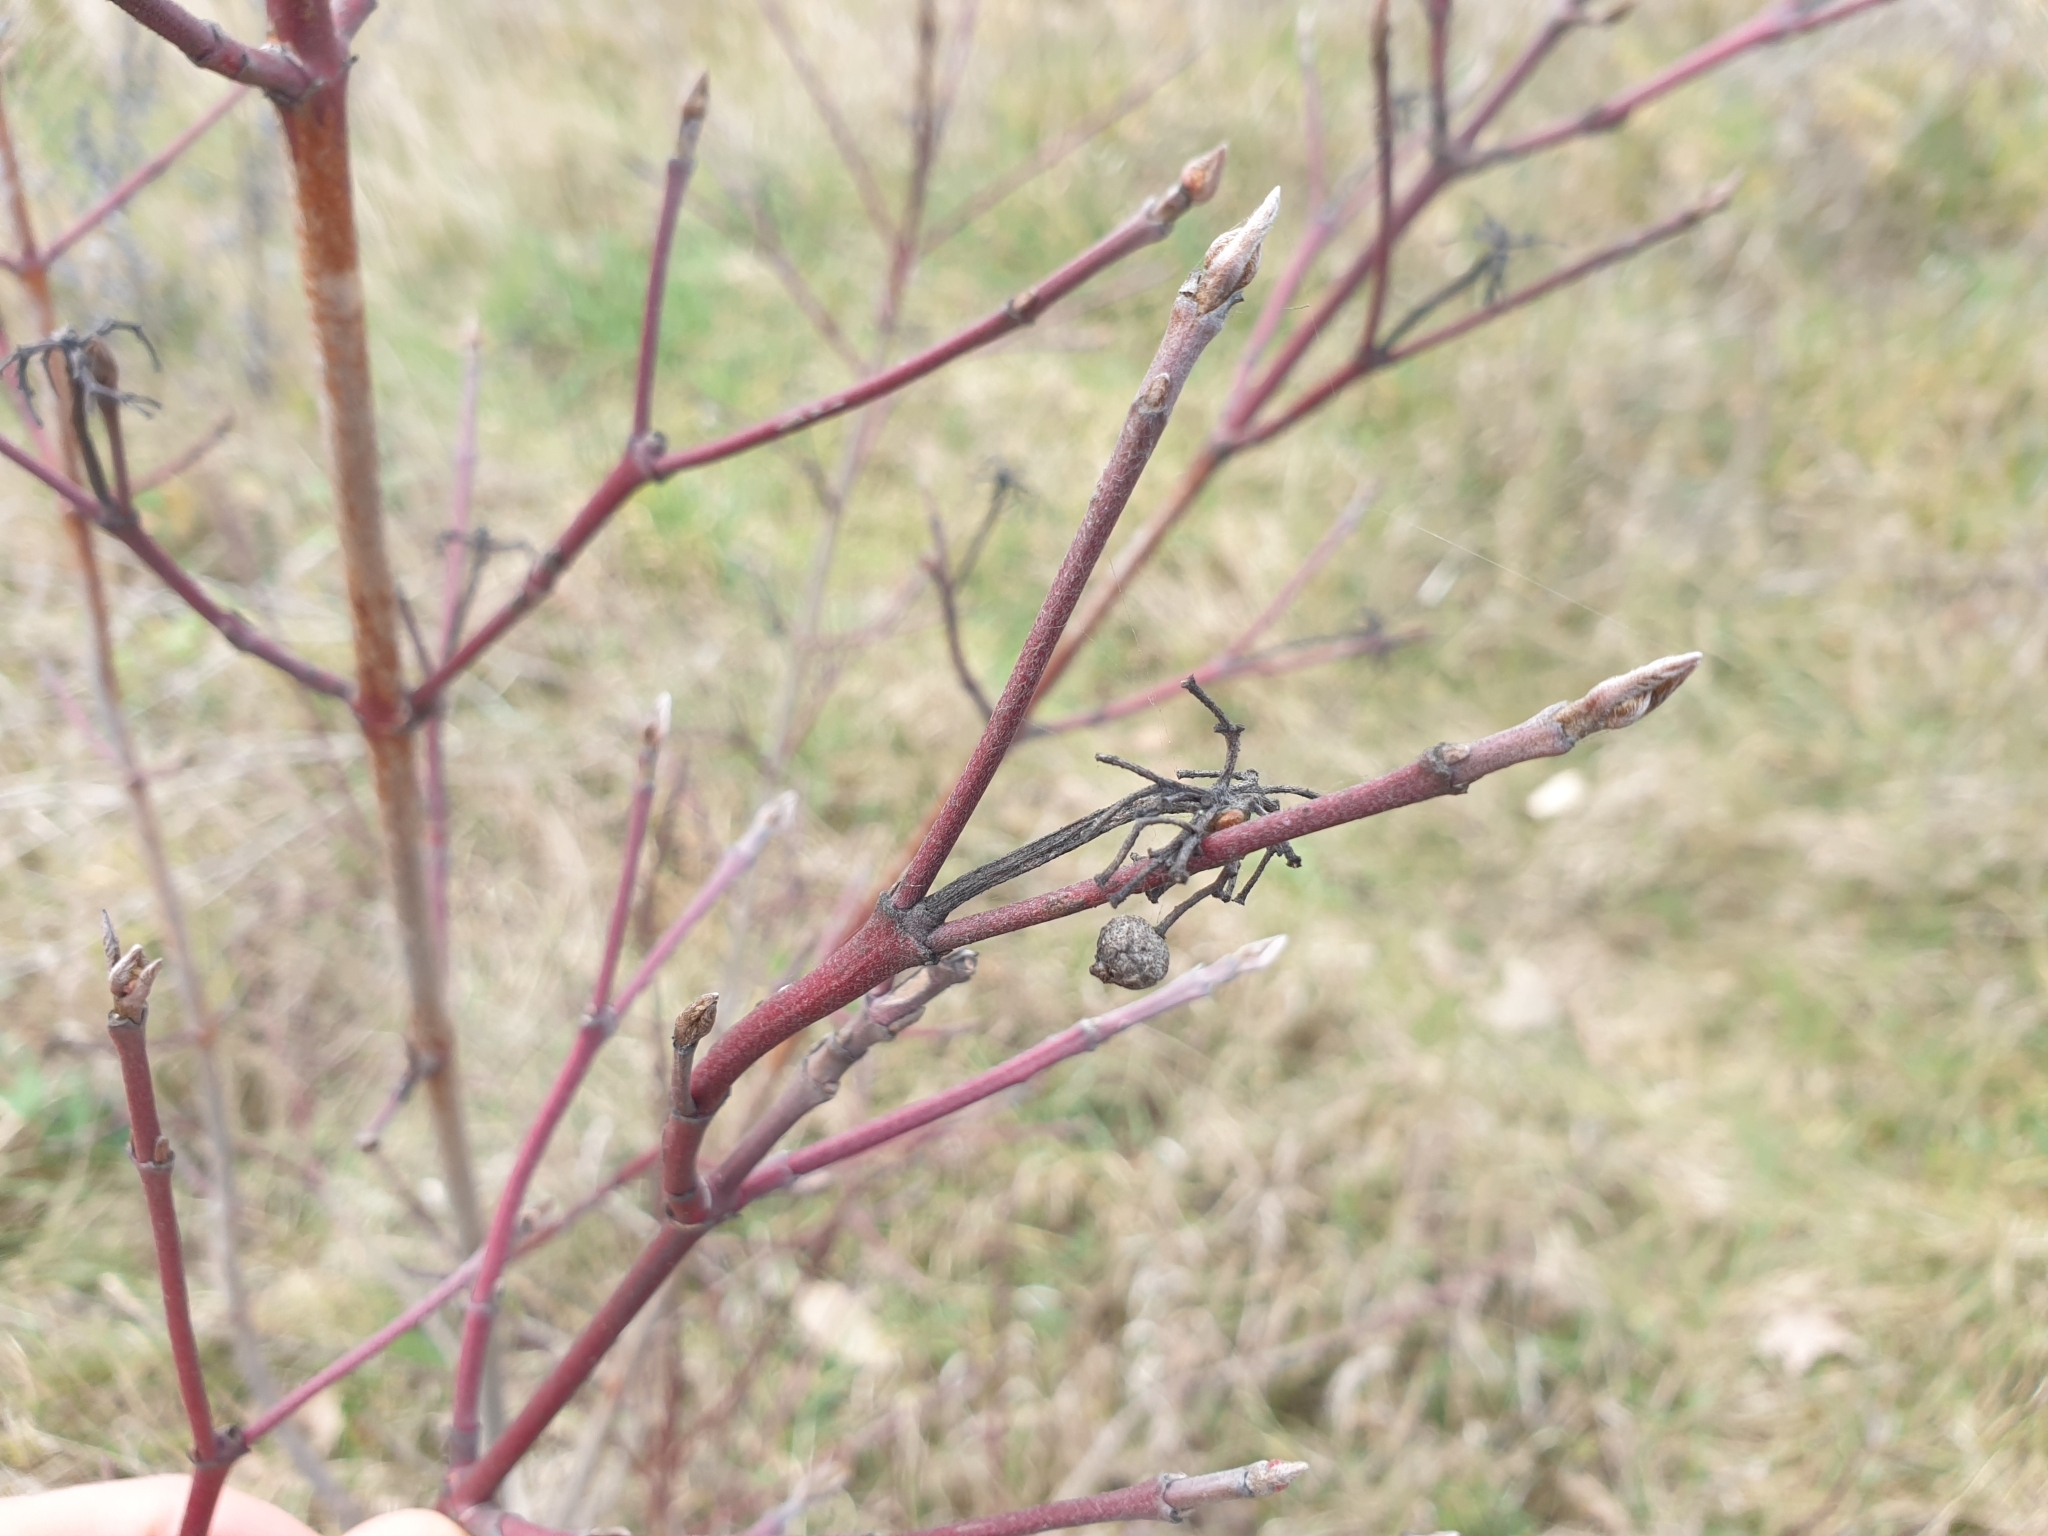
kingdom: Plantae
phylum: Tracheophyta
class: Magnoliopsida
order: Cornales
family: Cornaceae
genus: Cornus
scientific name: Cornus sanguinea
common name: Dogwood
